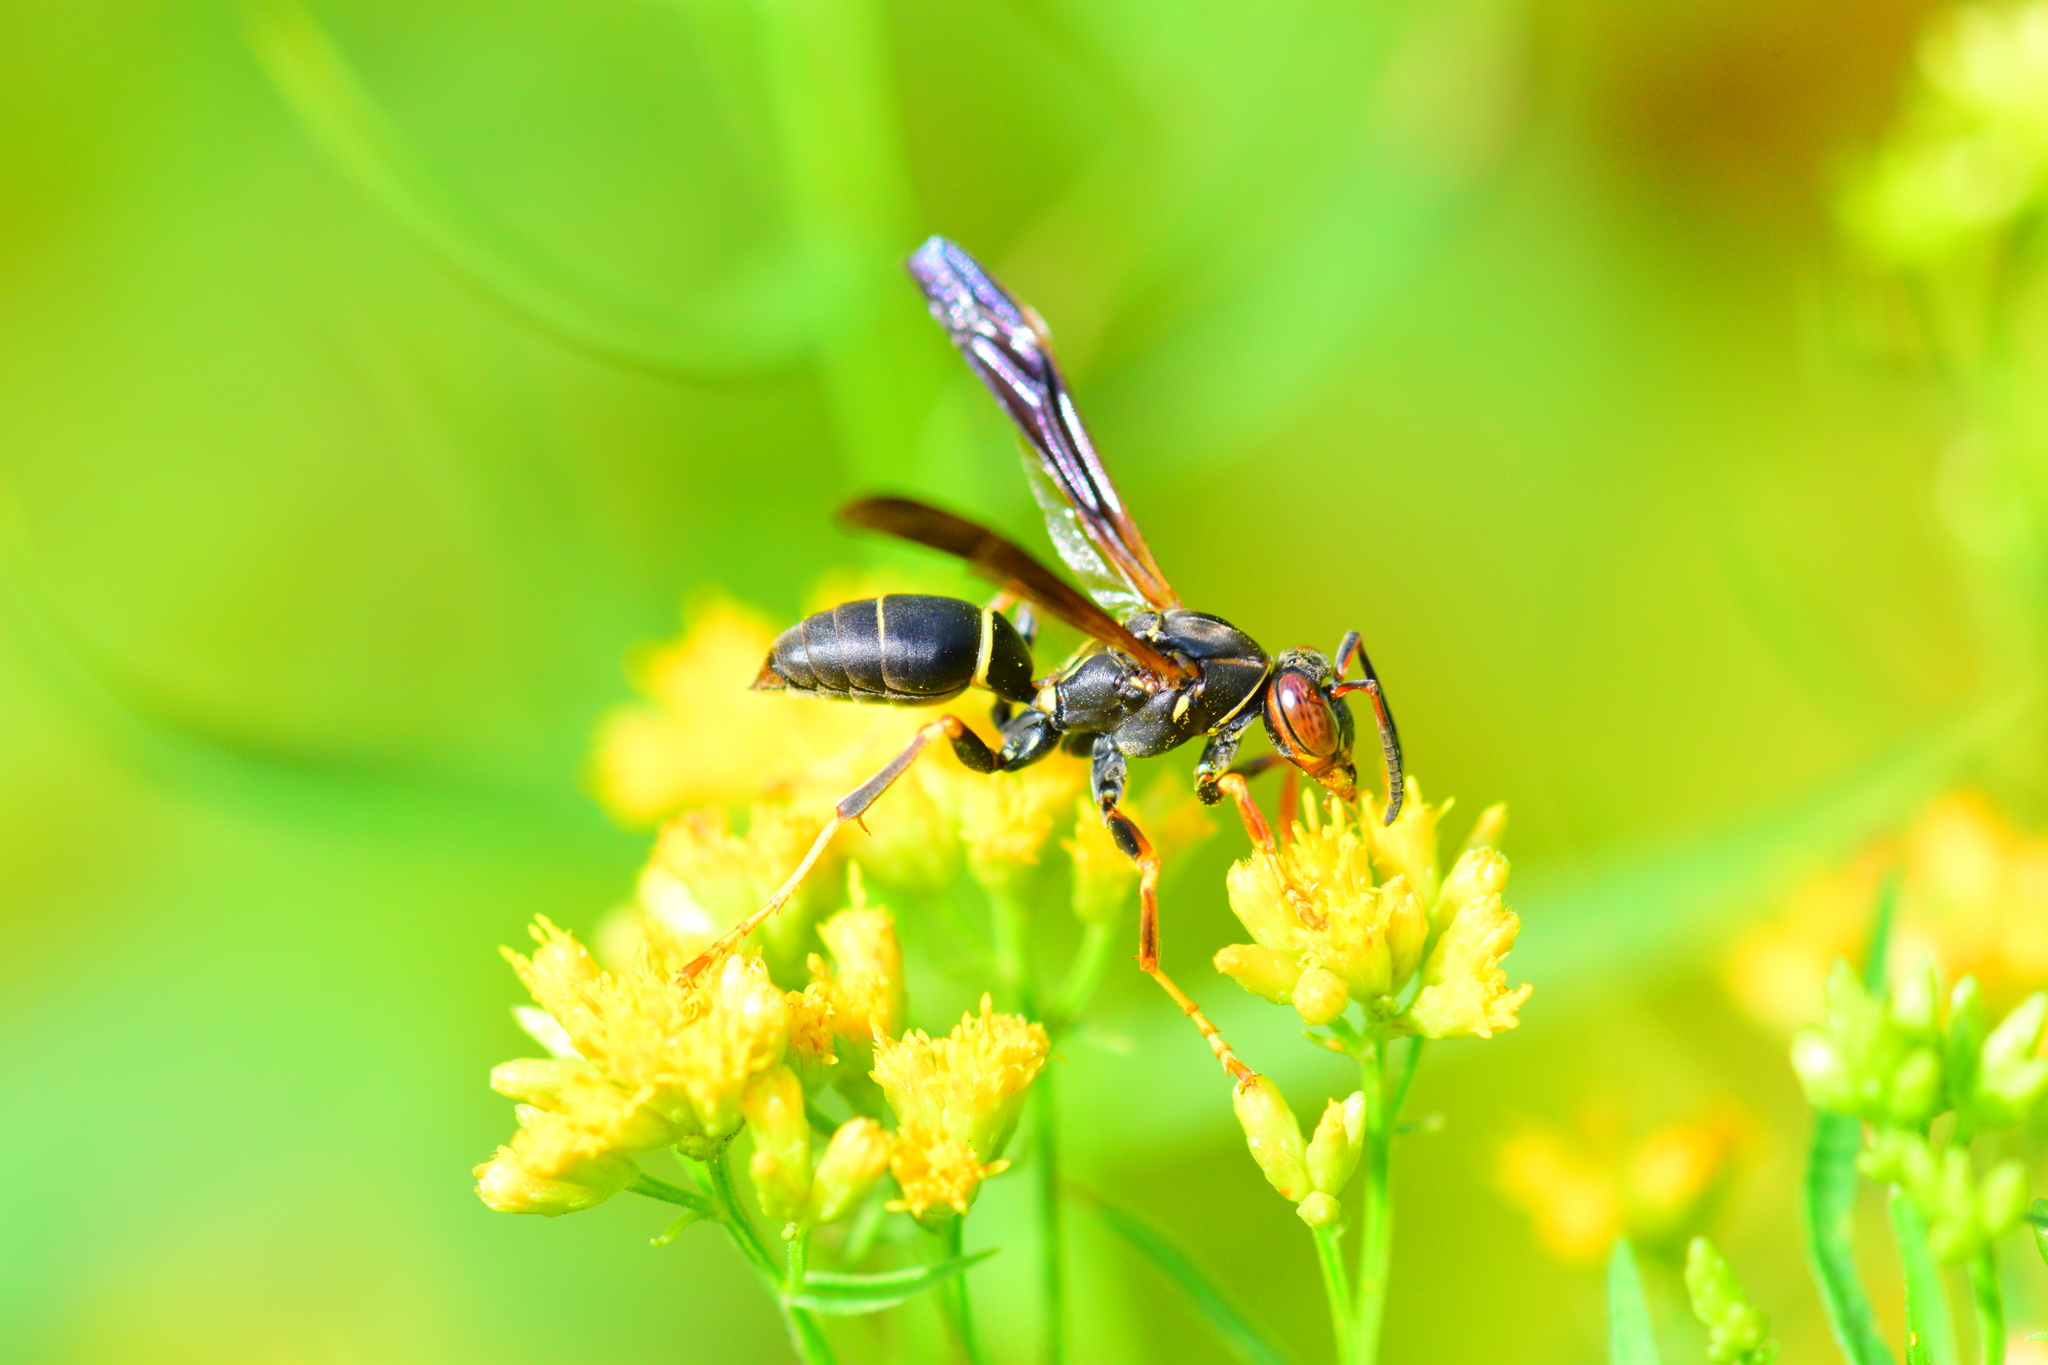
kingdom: Animalia
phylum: Arthropoda
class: Insecta
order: Hymenoptera
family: Eumenidae
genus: Polistes
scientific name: Polistes fuscatus
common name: Dark paper wasp
